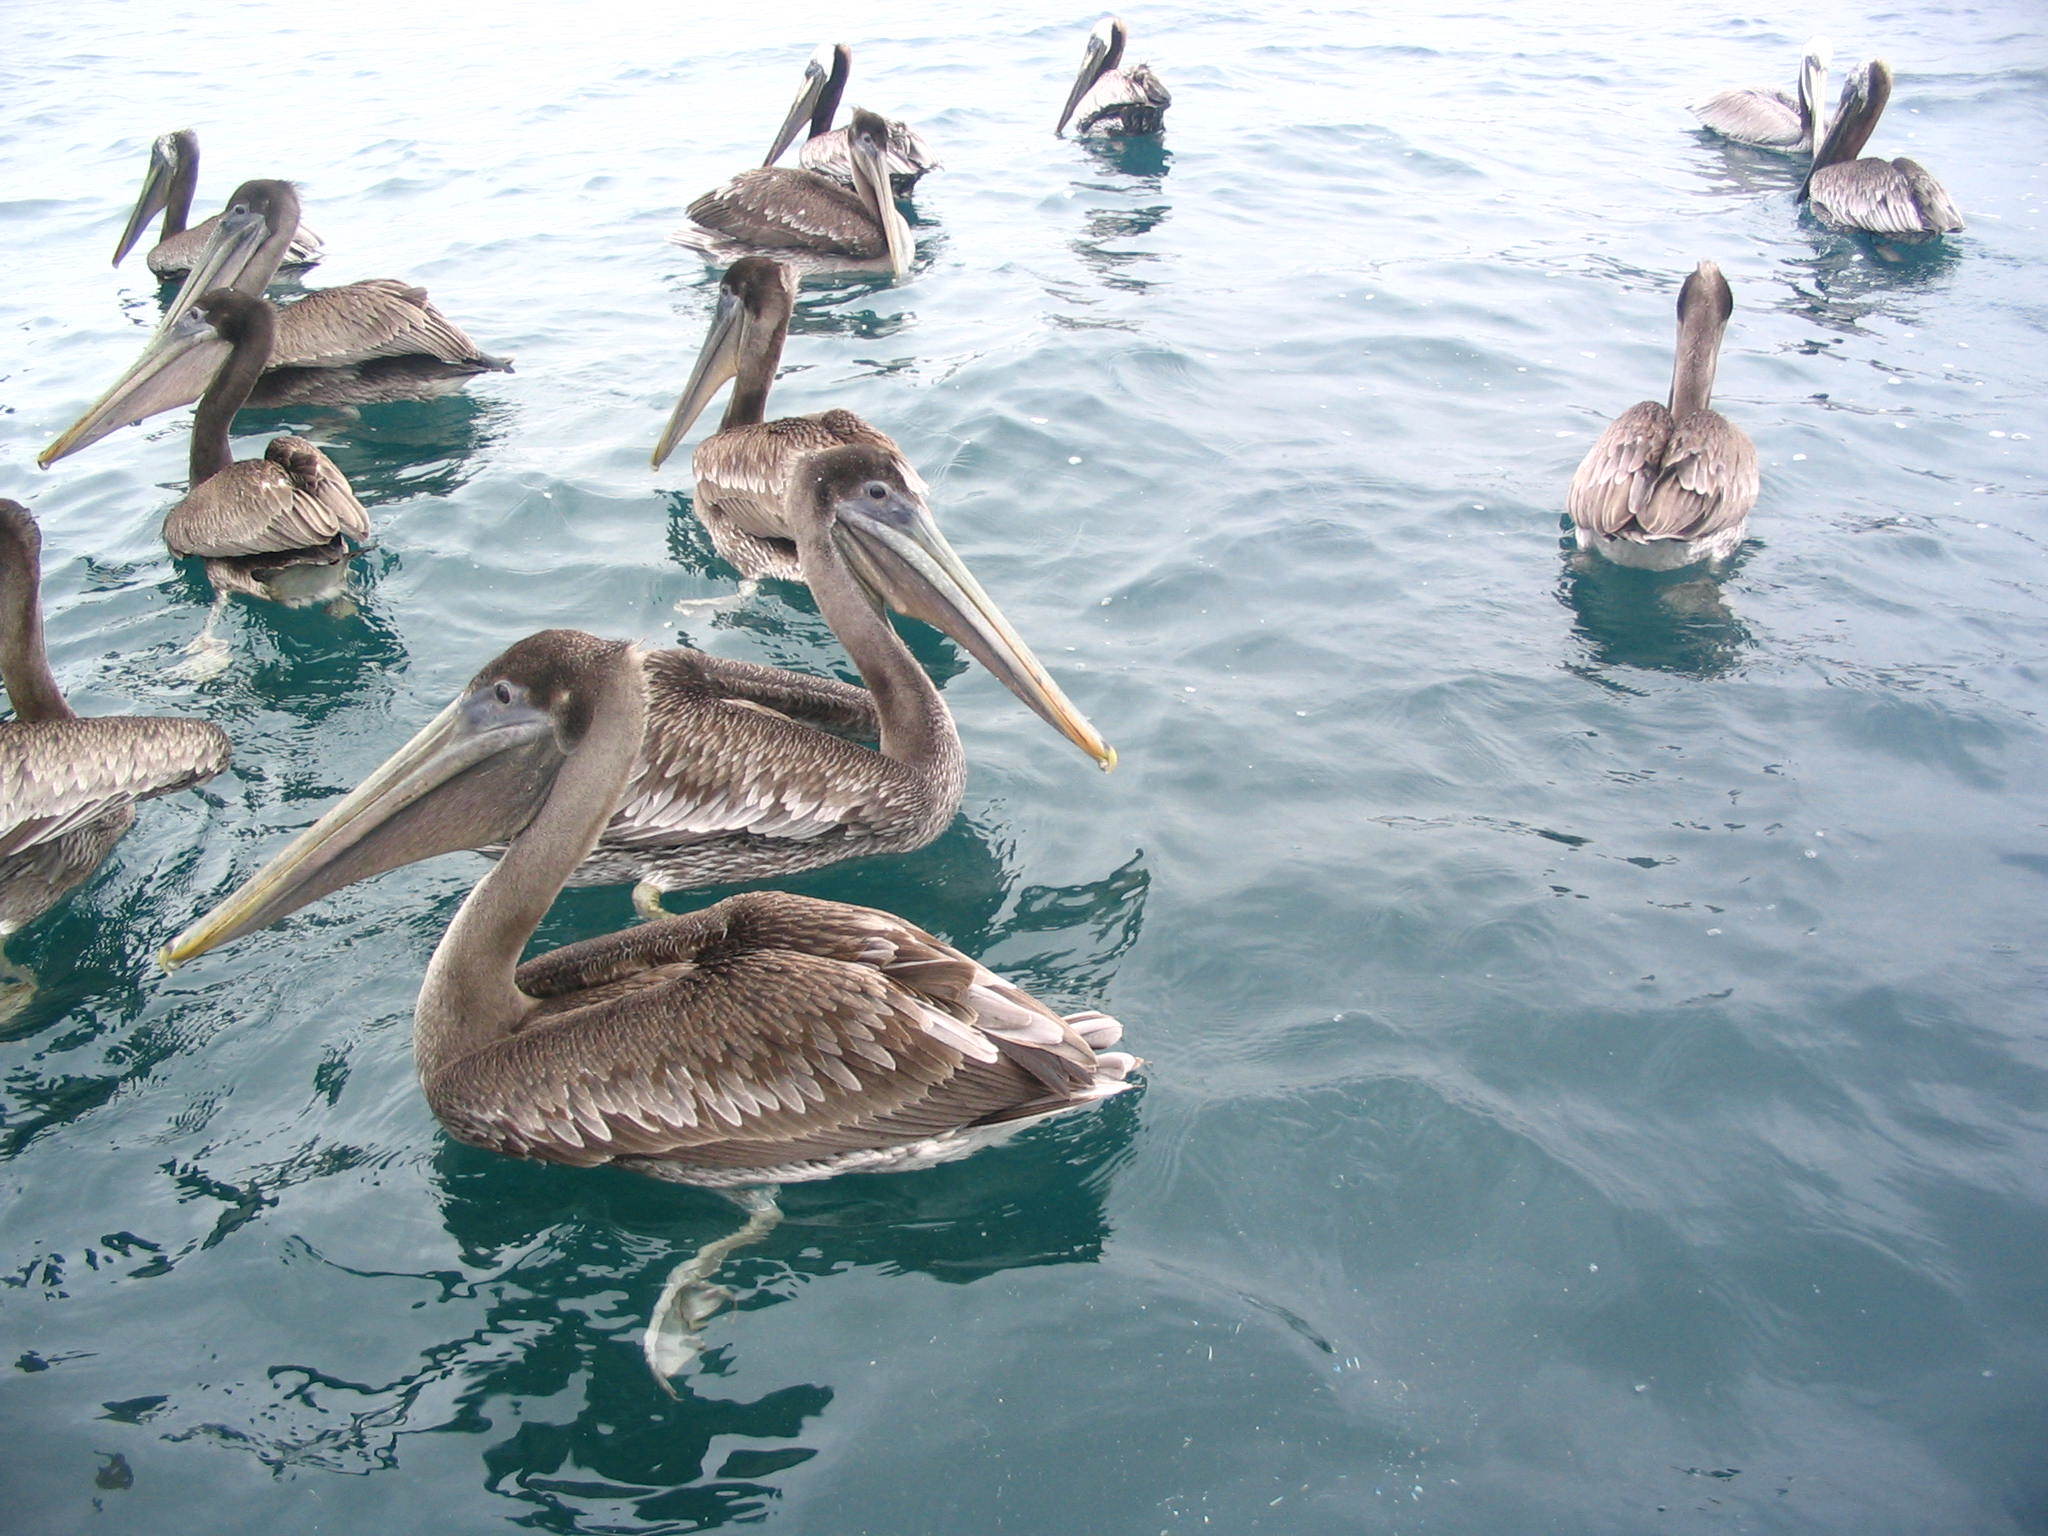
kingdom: Animalia
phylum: Chordata
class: Aves
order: Pelecaniformes
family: Pelecanidae
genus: Pelecanus
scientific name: Pelecanus occidentalis
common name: Brown pelican
